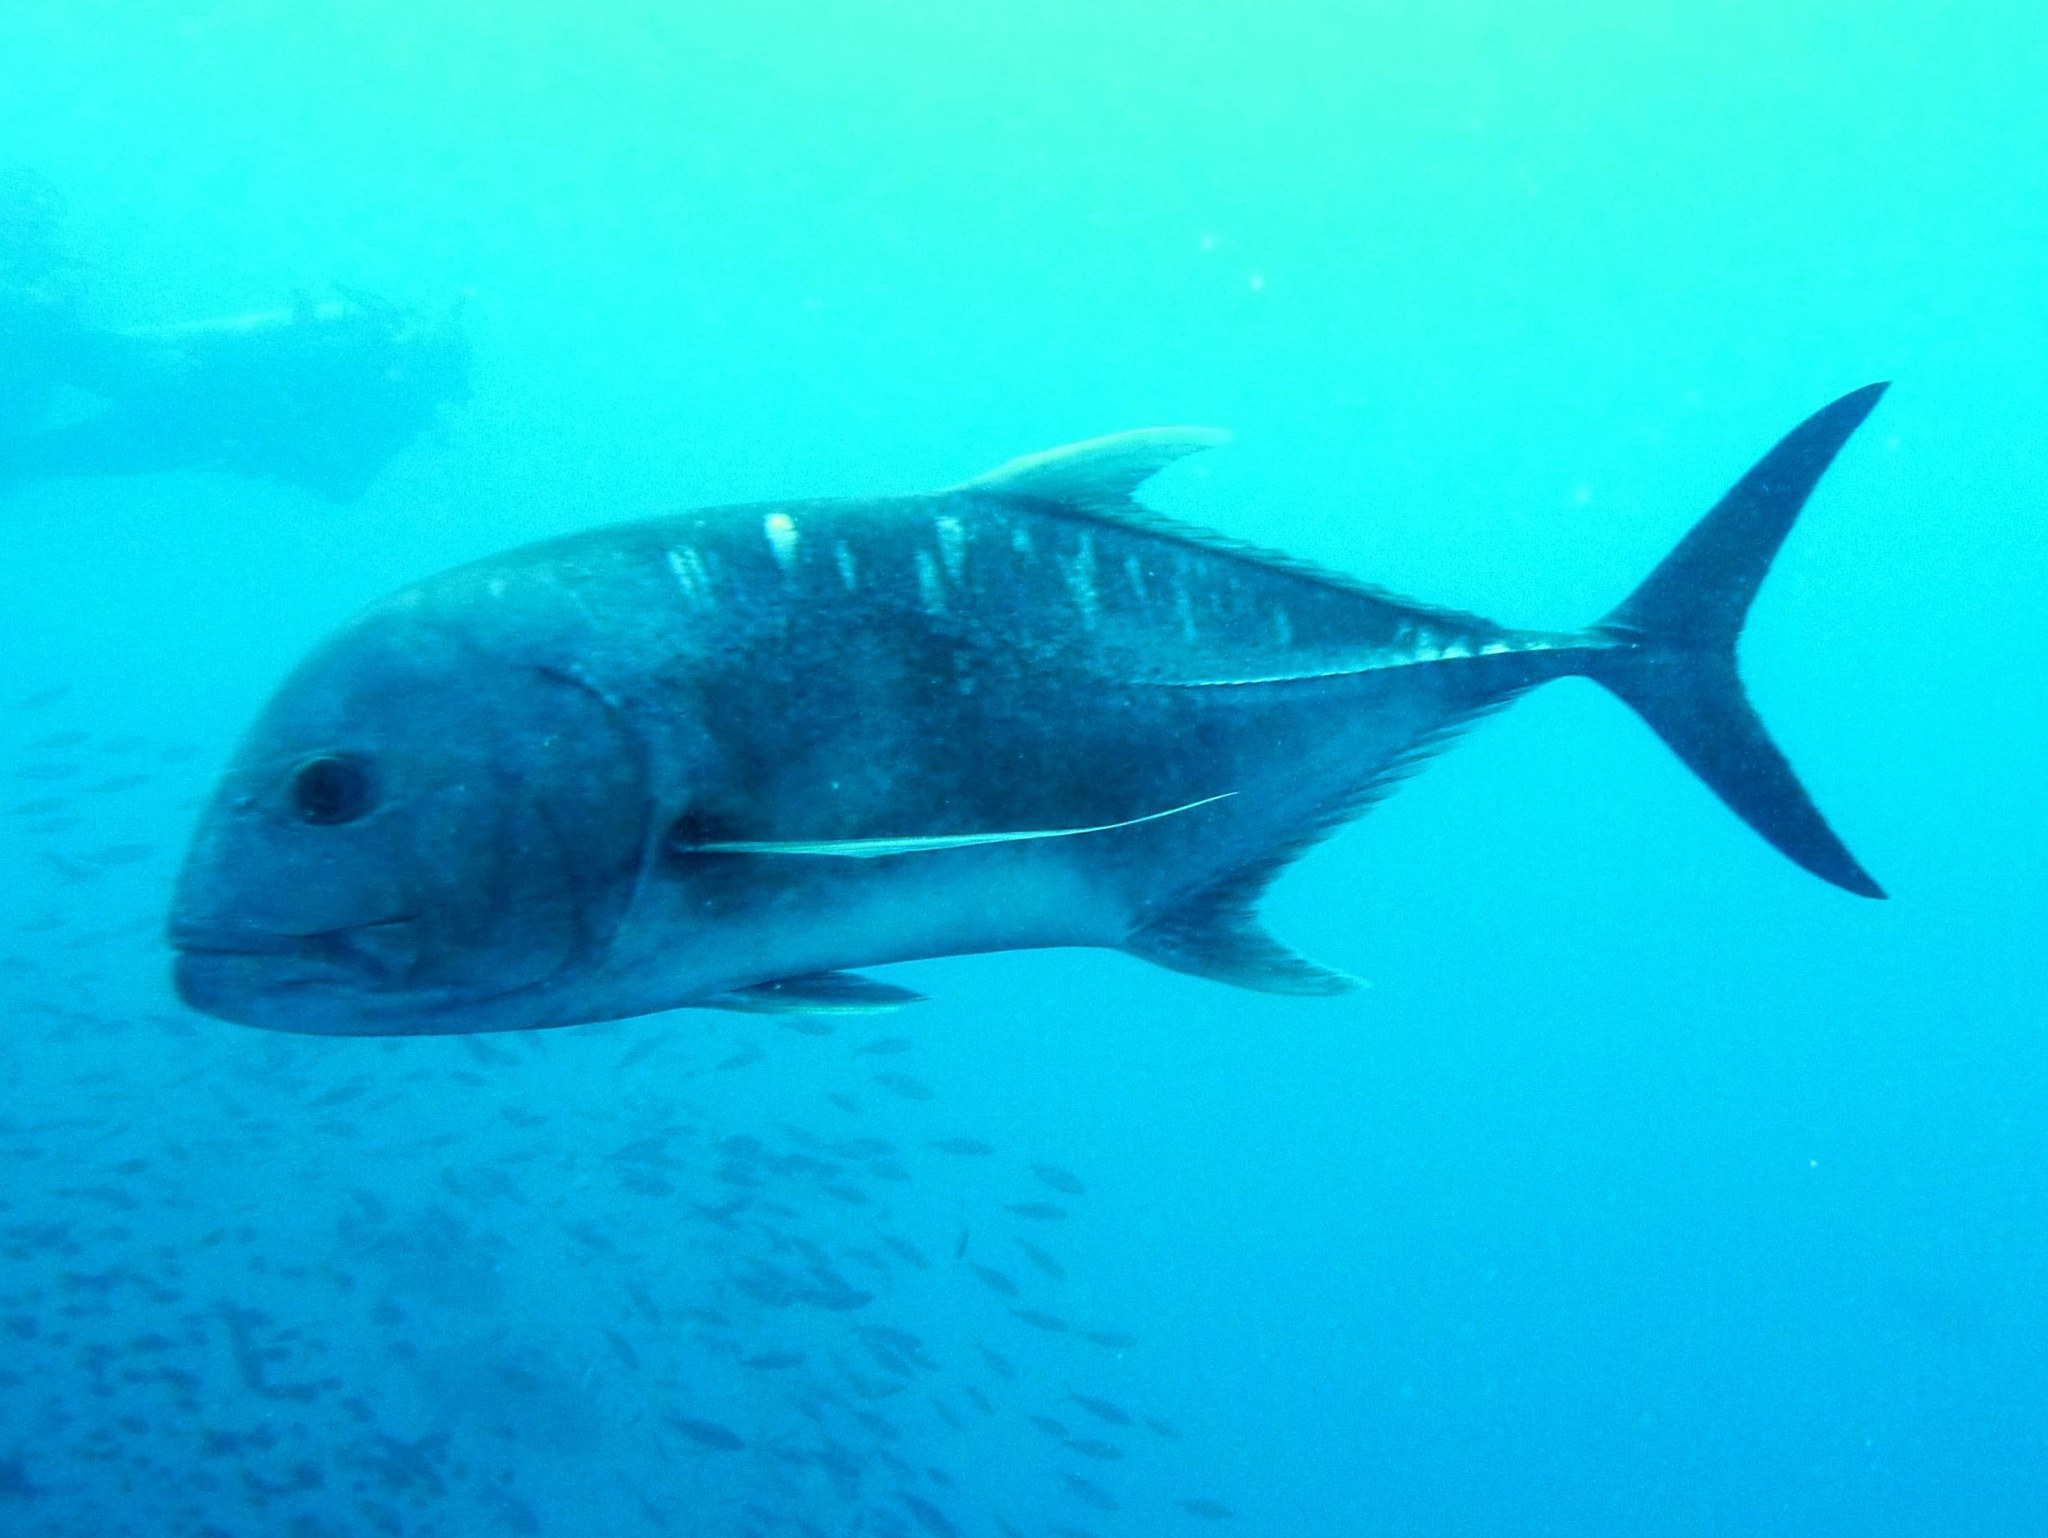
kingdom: Animalia
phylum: Chordata
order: Perciformes
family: Carangidae
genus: Caranx
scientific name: Caranx ignobilis
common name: Giant trevally
